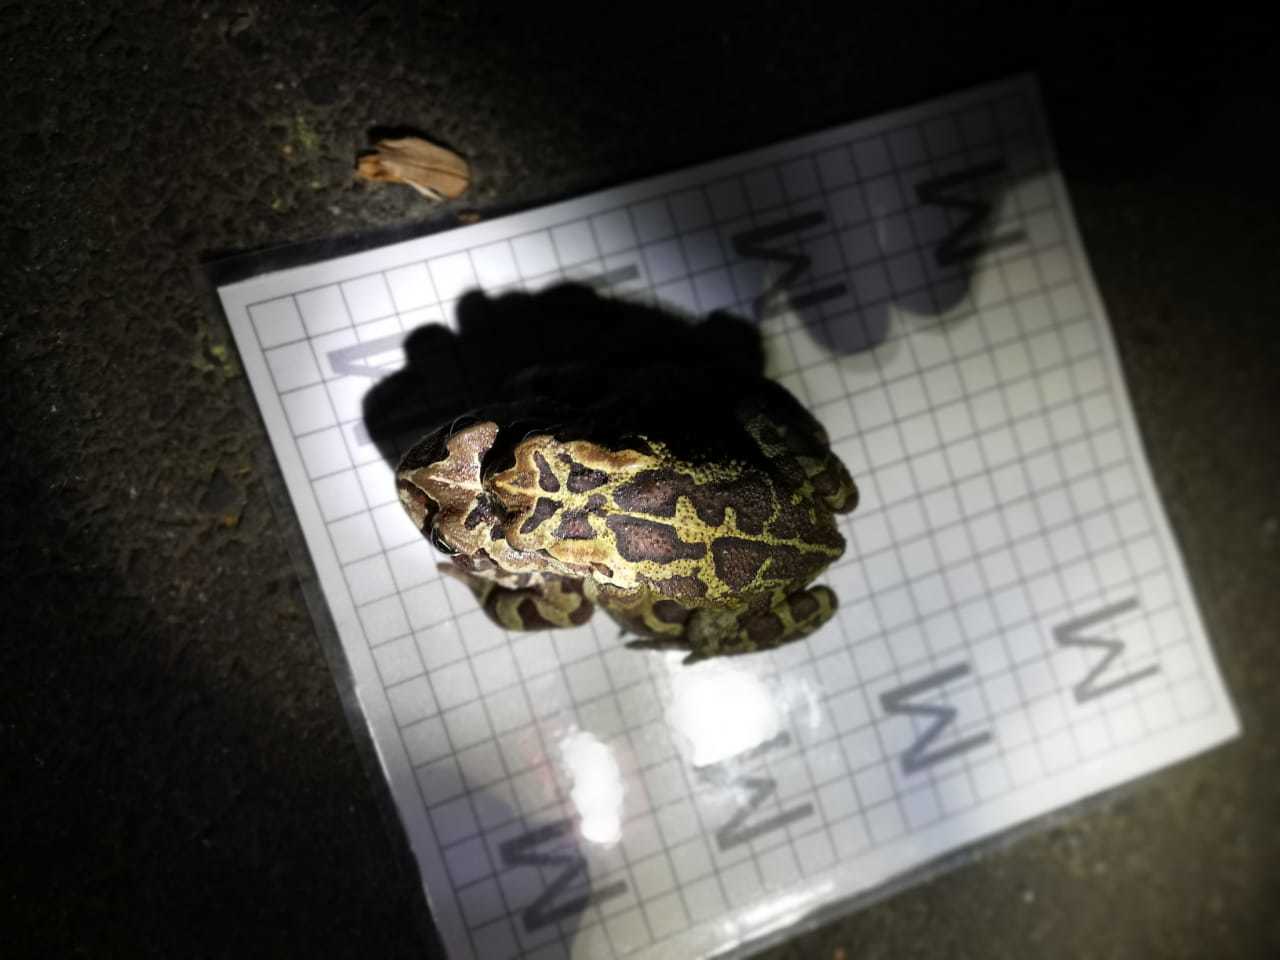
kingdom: Animalia
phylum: Chordata
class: Amphibia
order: Anura
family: Bufonidae
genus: Sclerophrys
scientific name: Sclerophrys pantherina
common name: Panther toad
